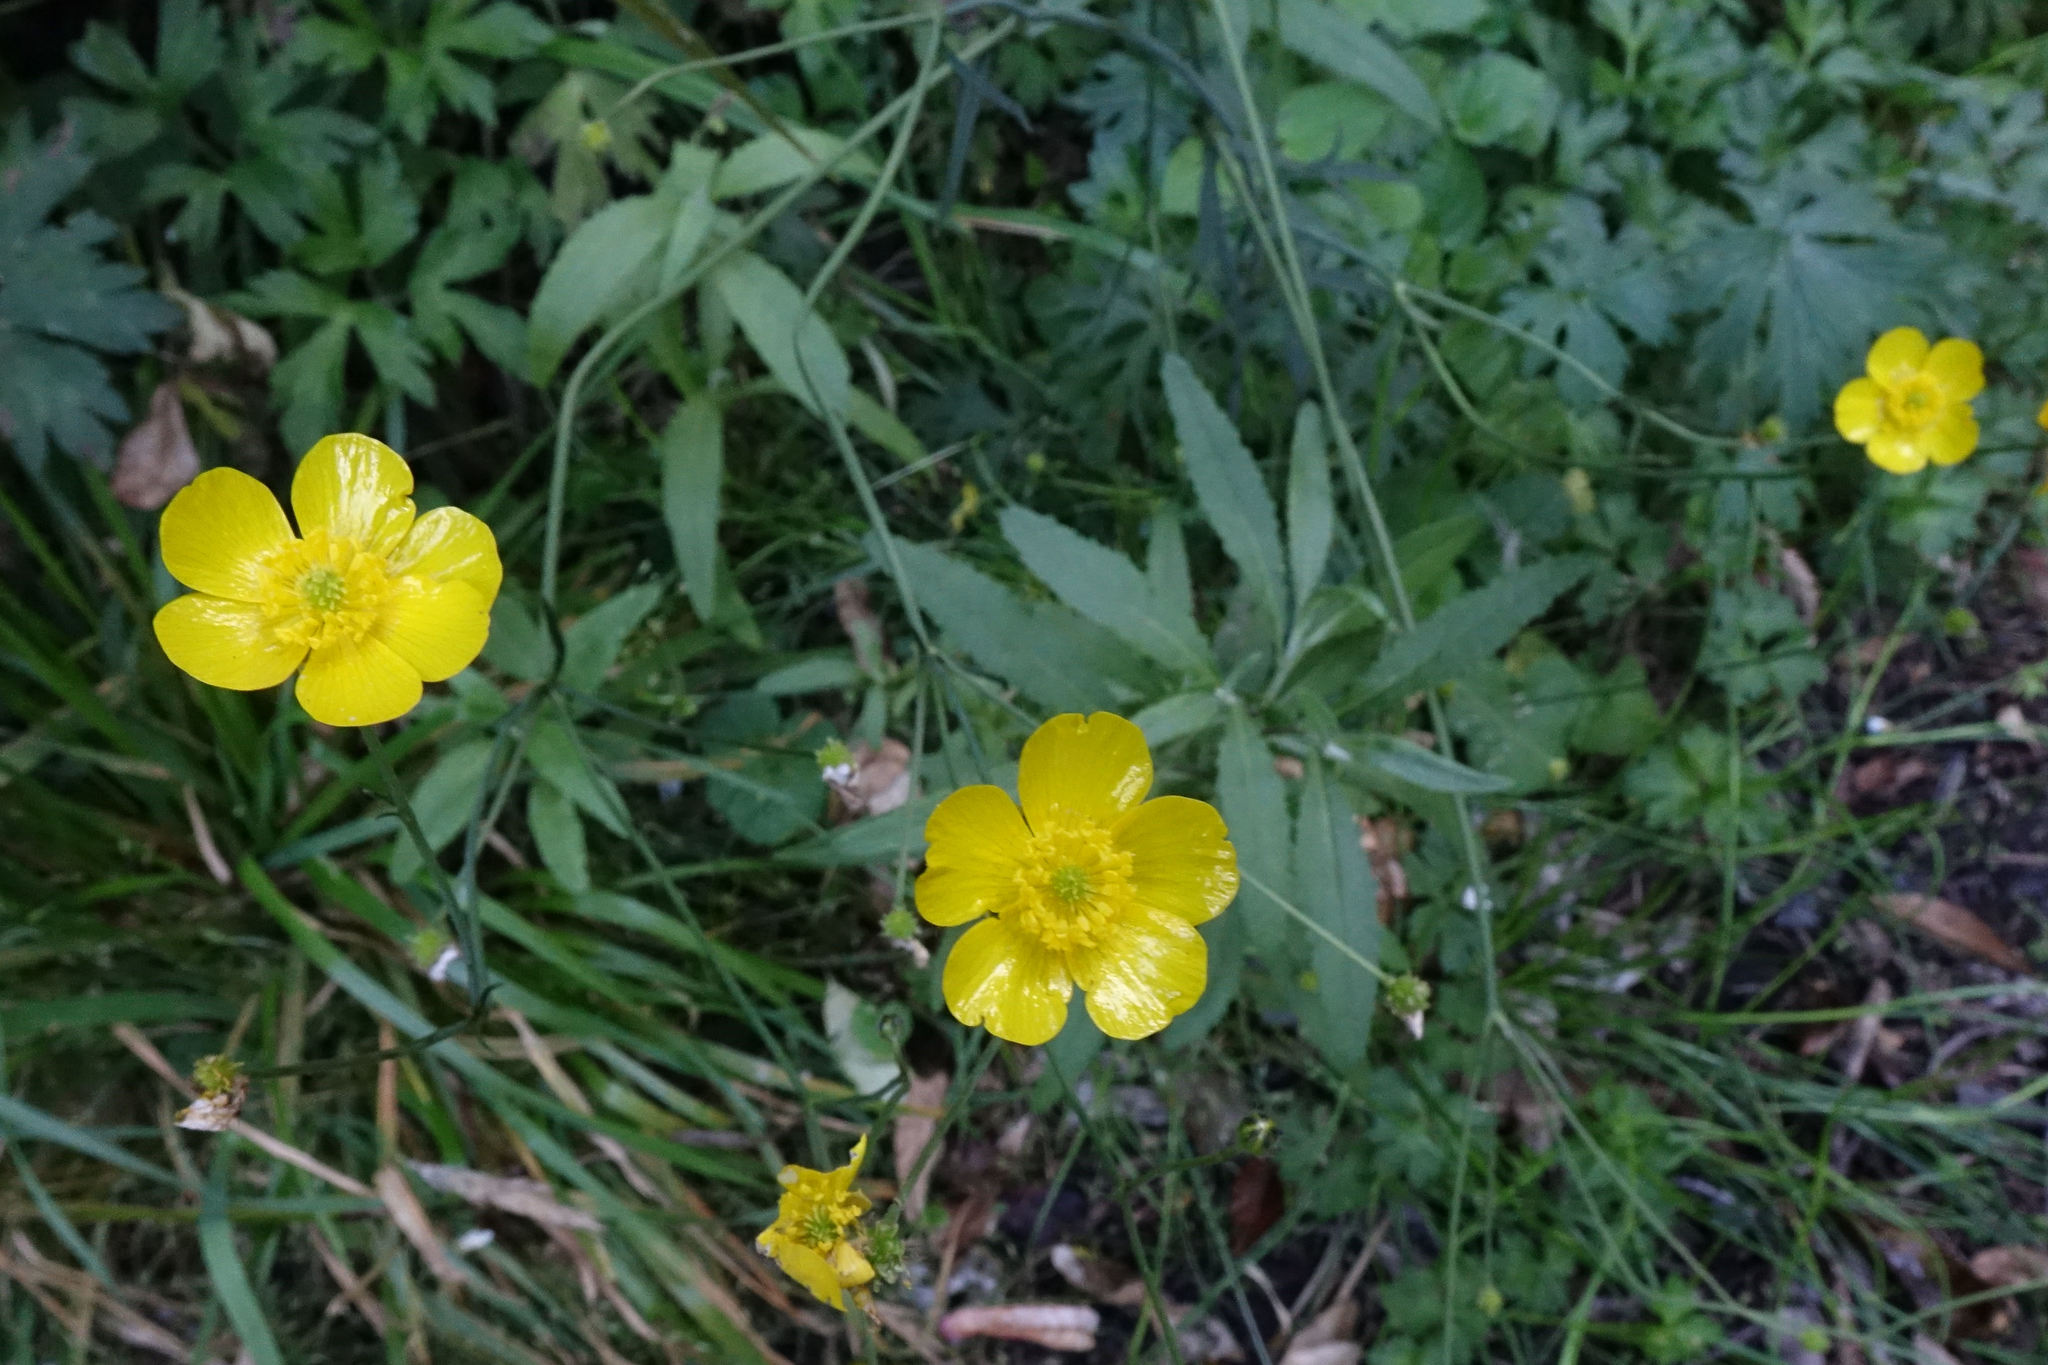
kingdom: Plantae
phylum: Tracheophyta
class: Magnoliopsida
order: Ranunculales
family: Ranunculaceae
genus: Ranunculus
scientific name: Ranunculus acris
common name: Meadow buttercup
